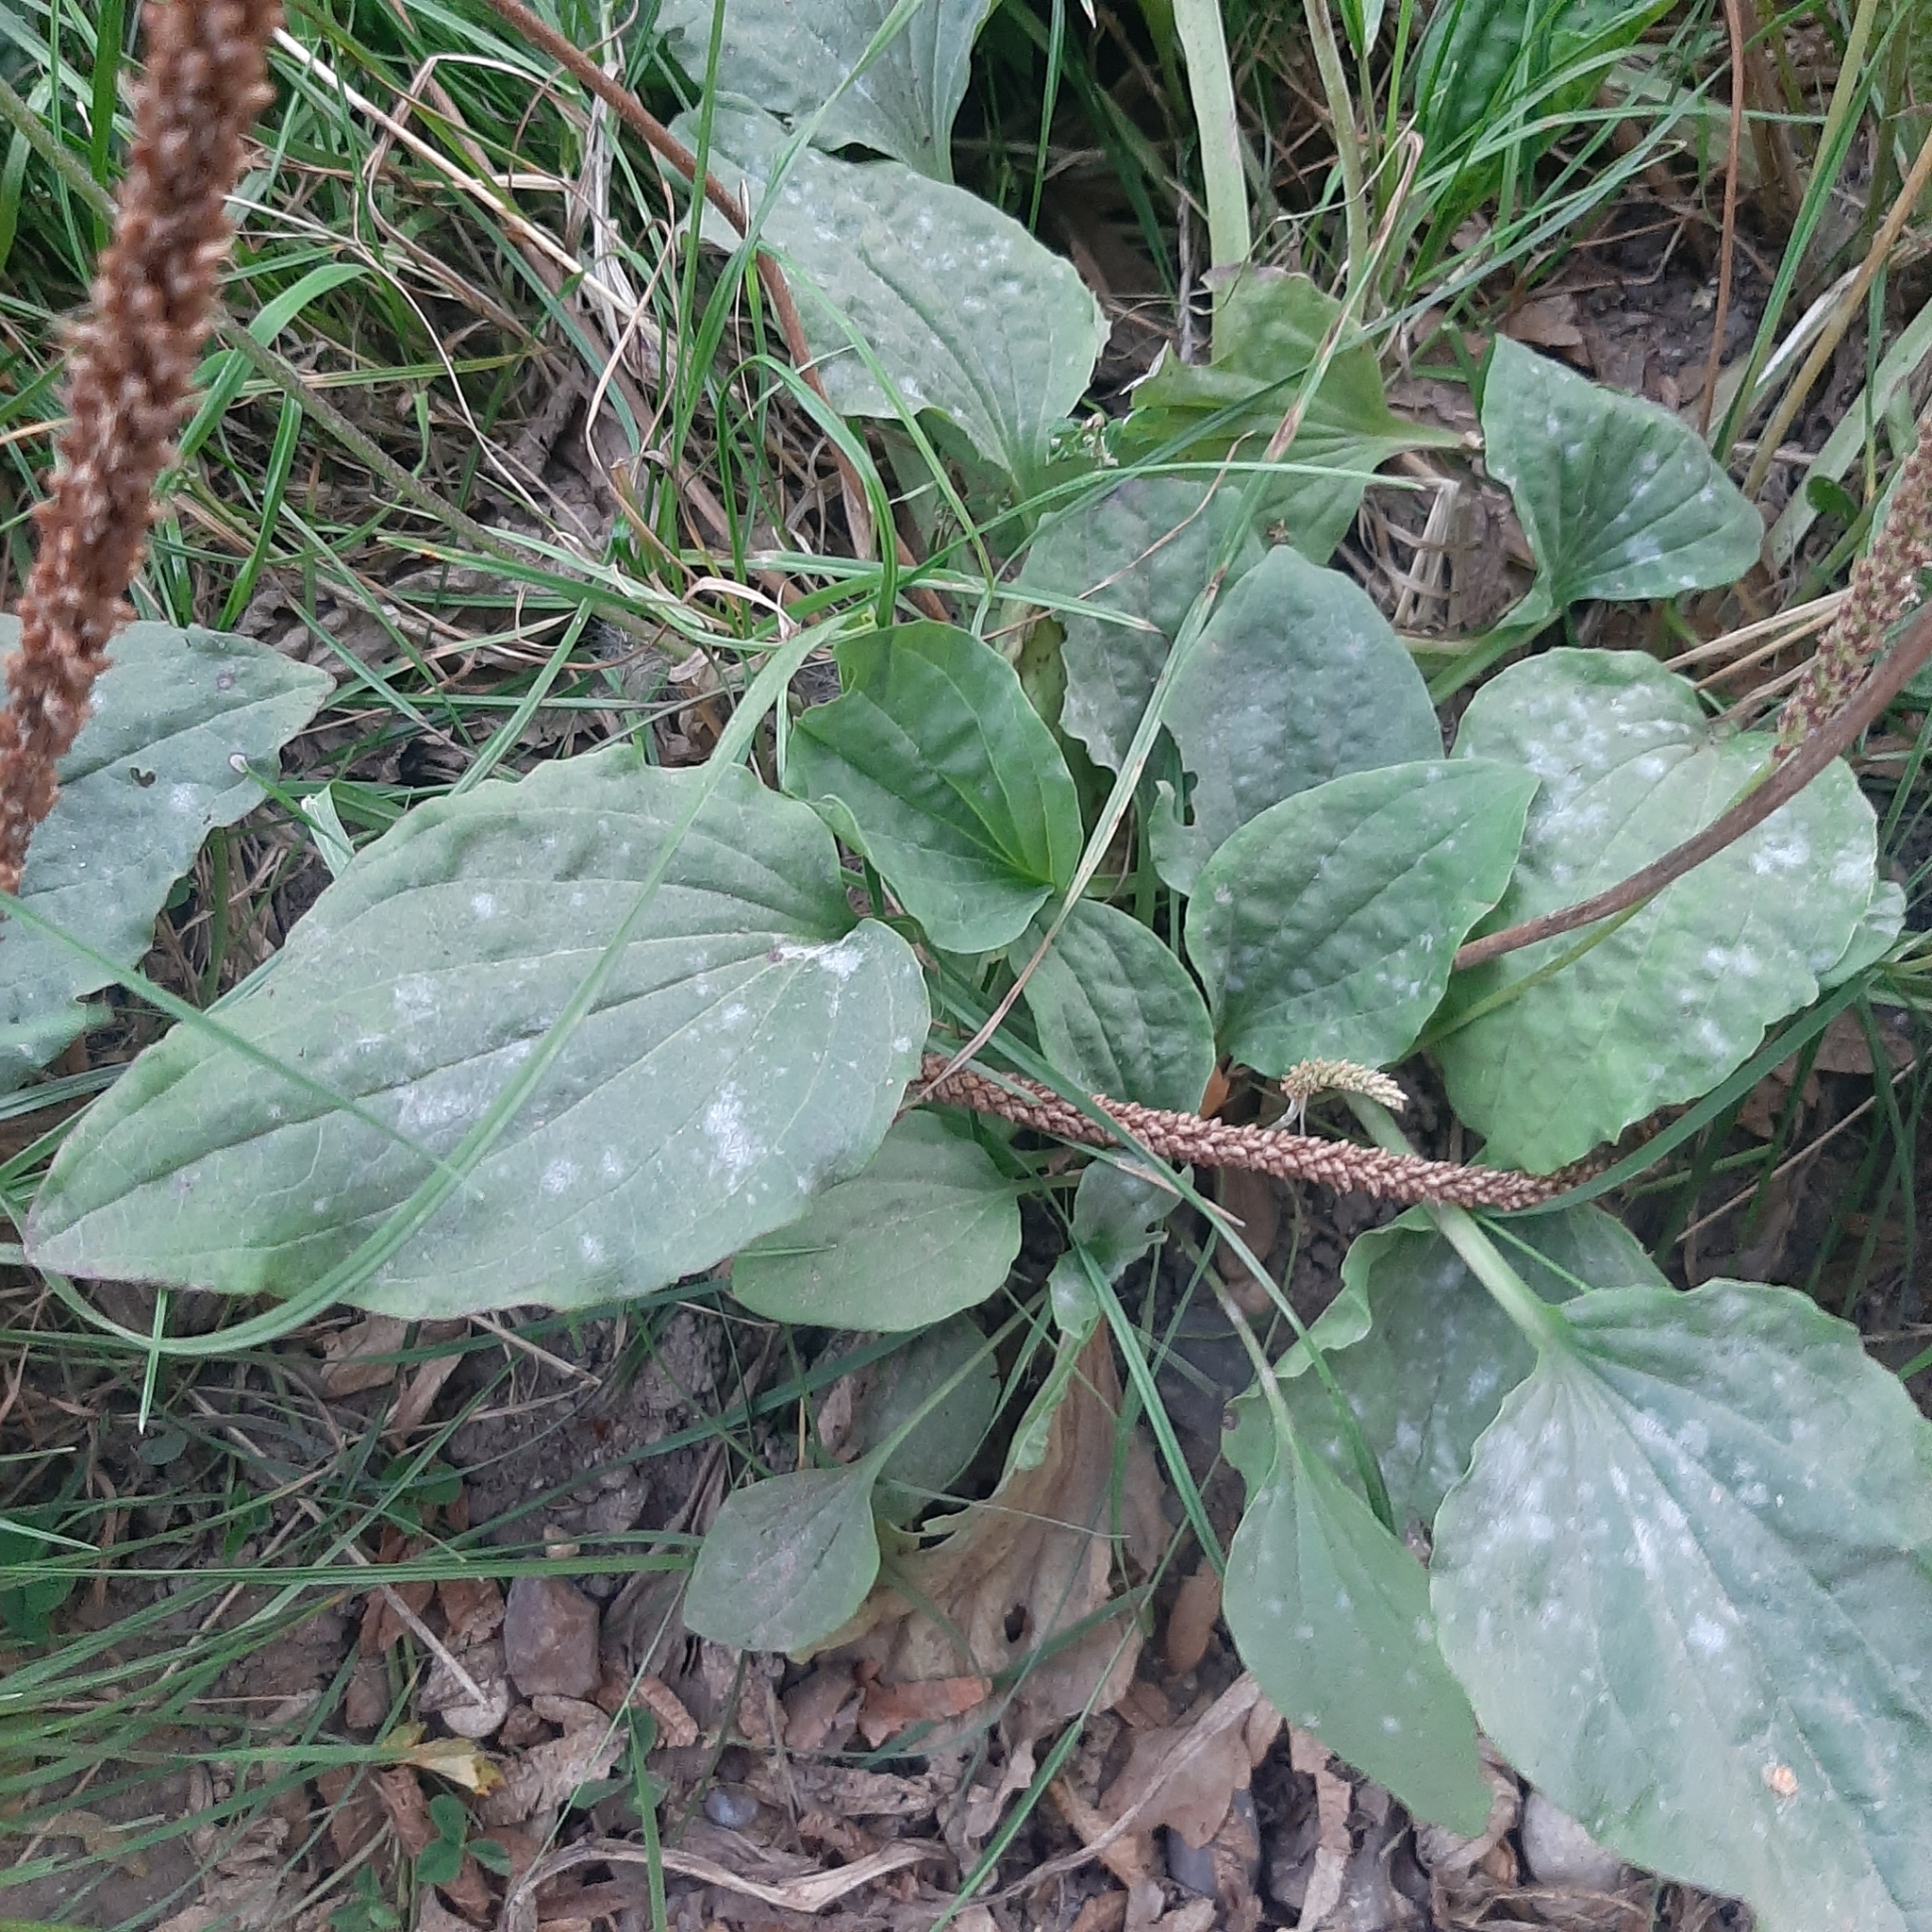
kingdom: Plantae
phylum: Tracheophyta
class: Magnoliopsida
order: Lamiales
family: Plantaginaceae
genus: Plantago
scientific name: Plantago major
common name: Common plantain
